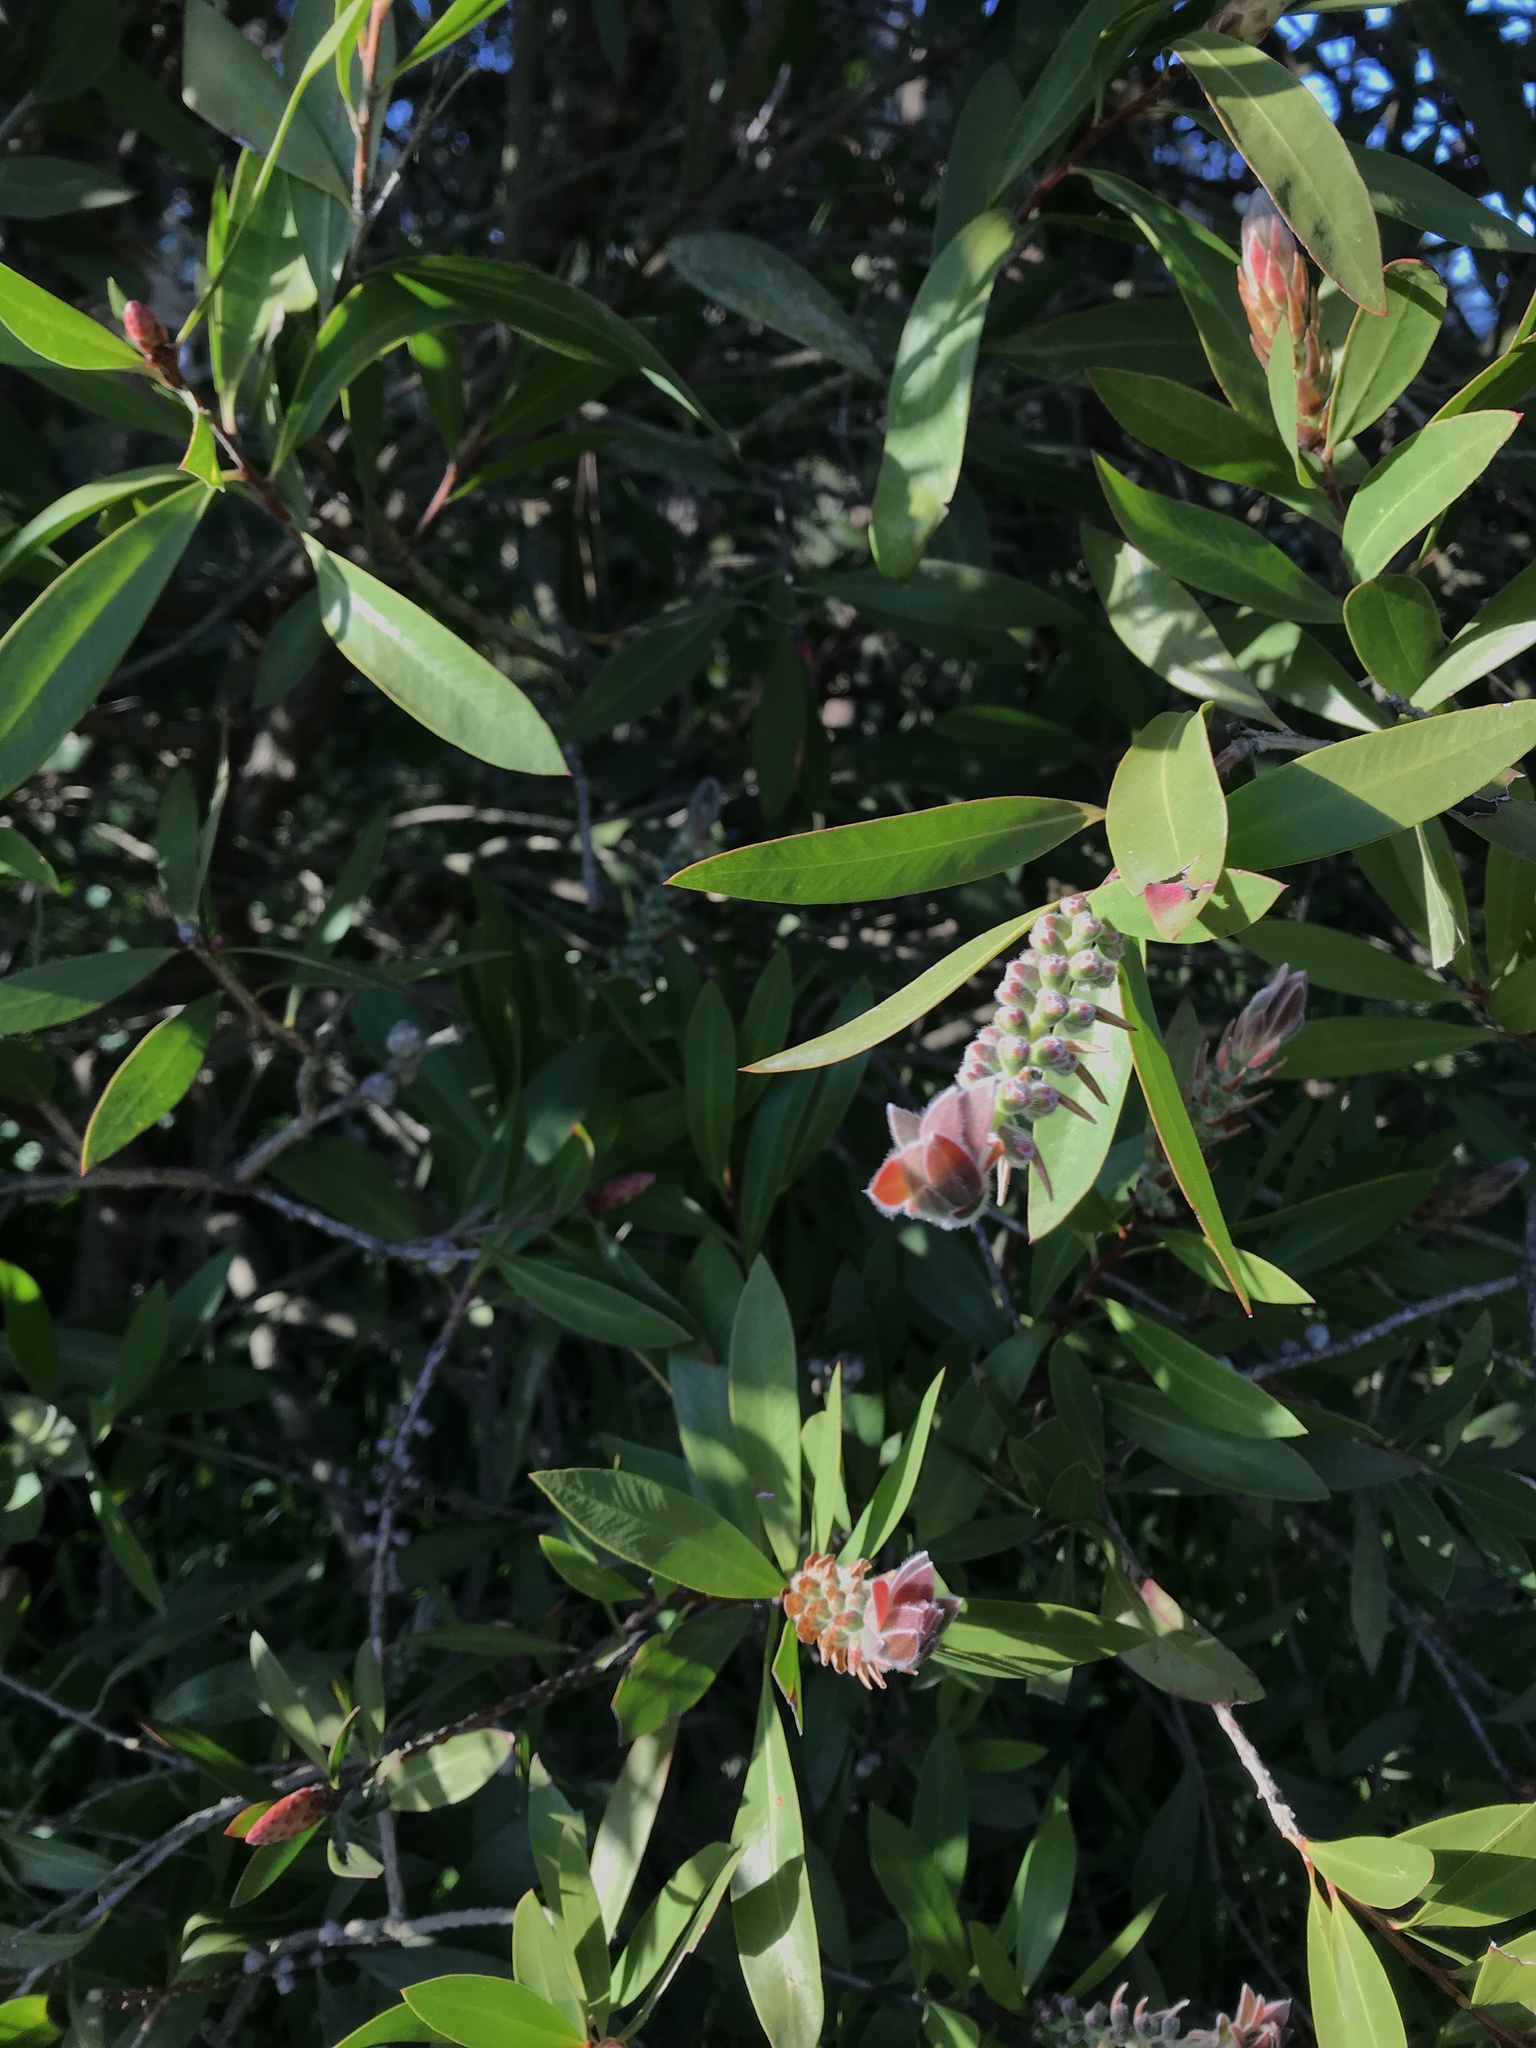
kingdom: Plantae
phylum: Tracheophyta
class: Magnoliopsida
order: Myrtales
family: Myrtaceae
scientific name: Myrtaceae
